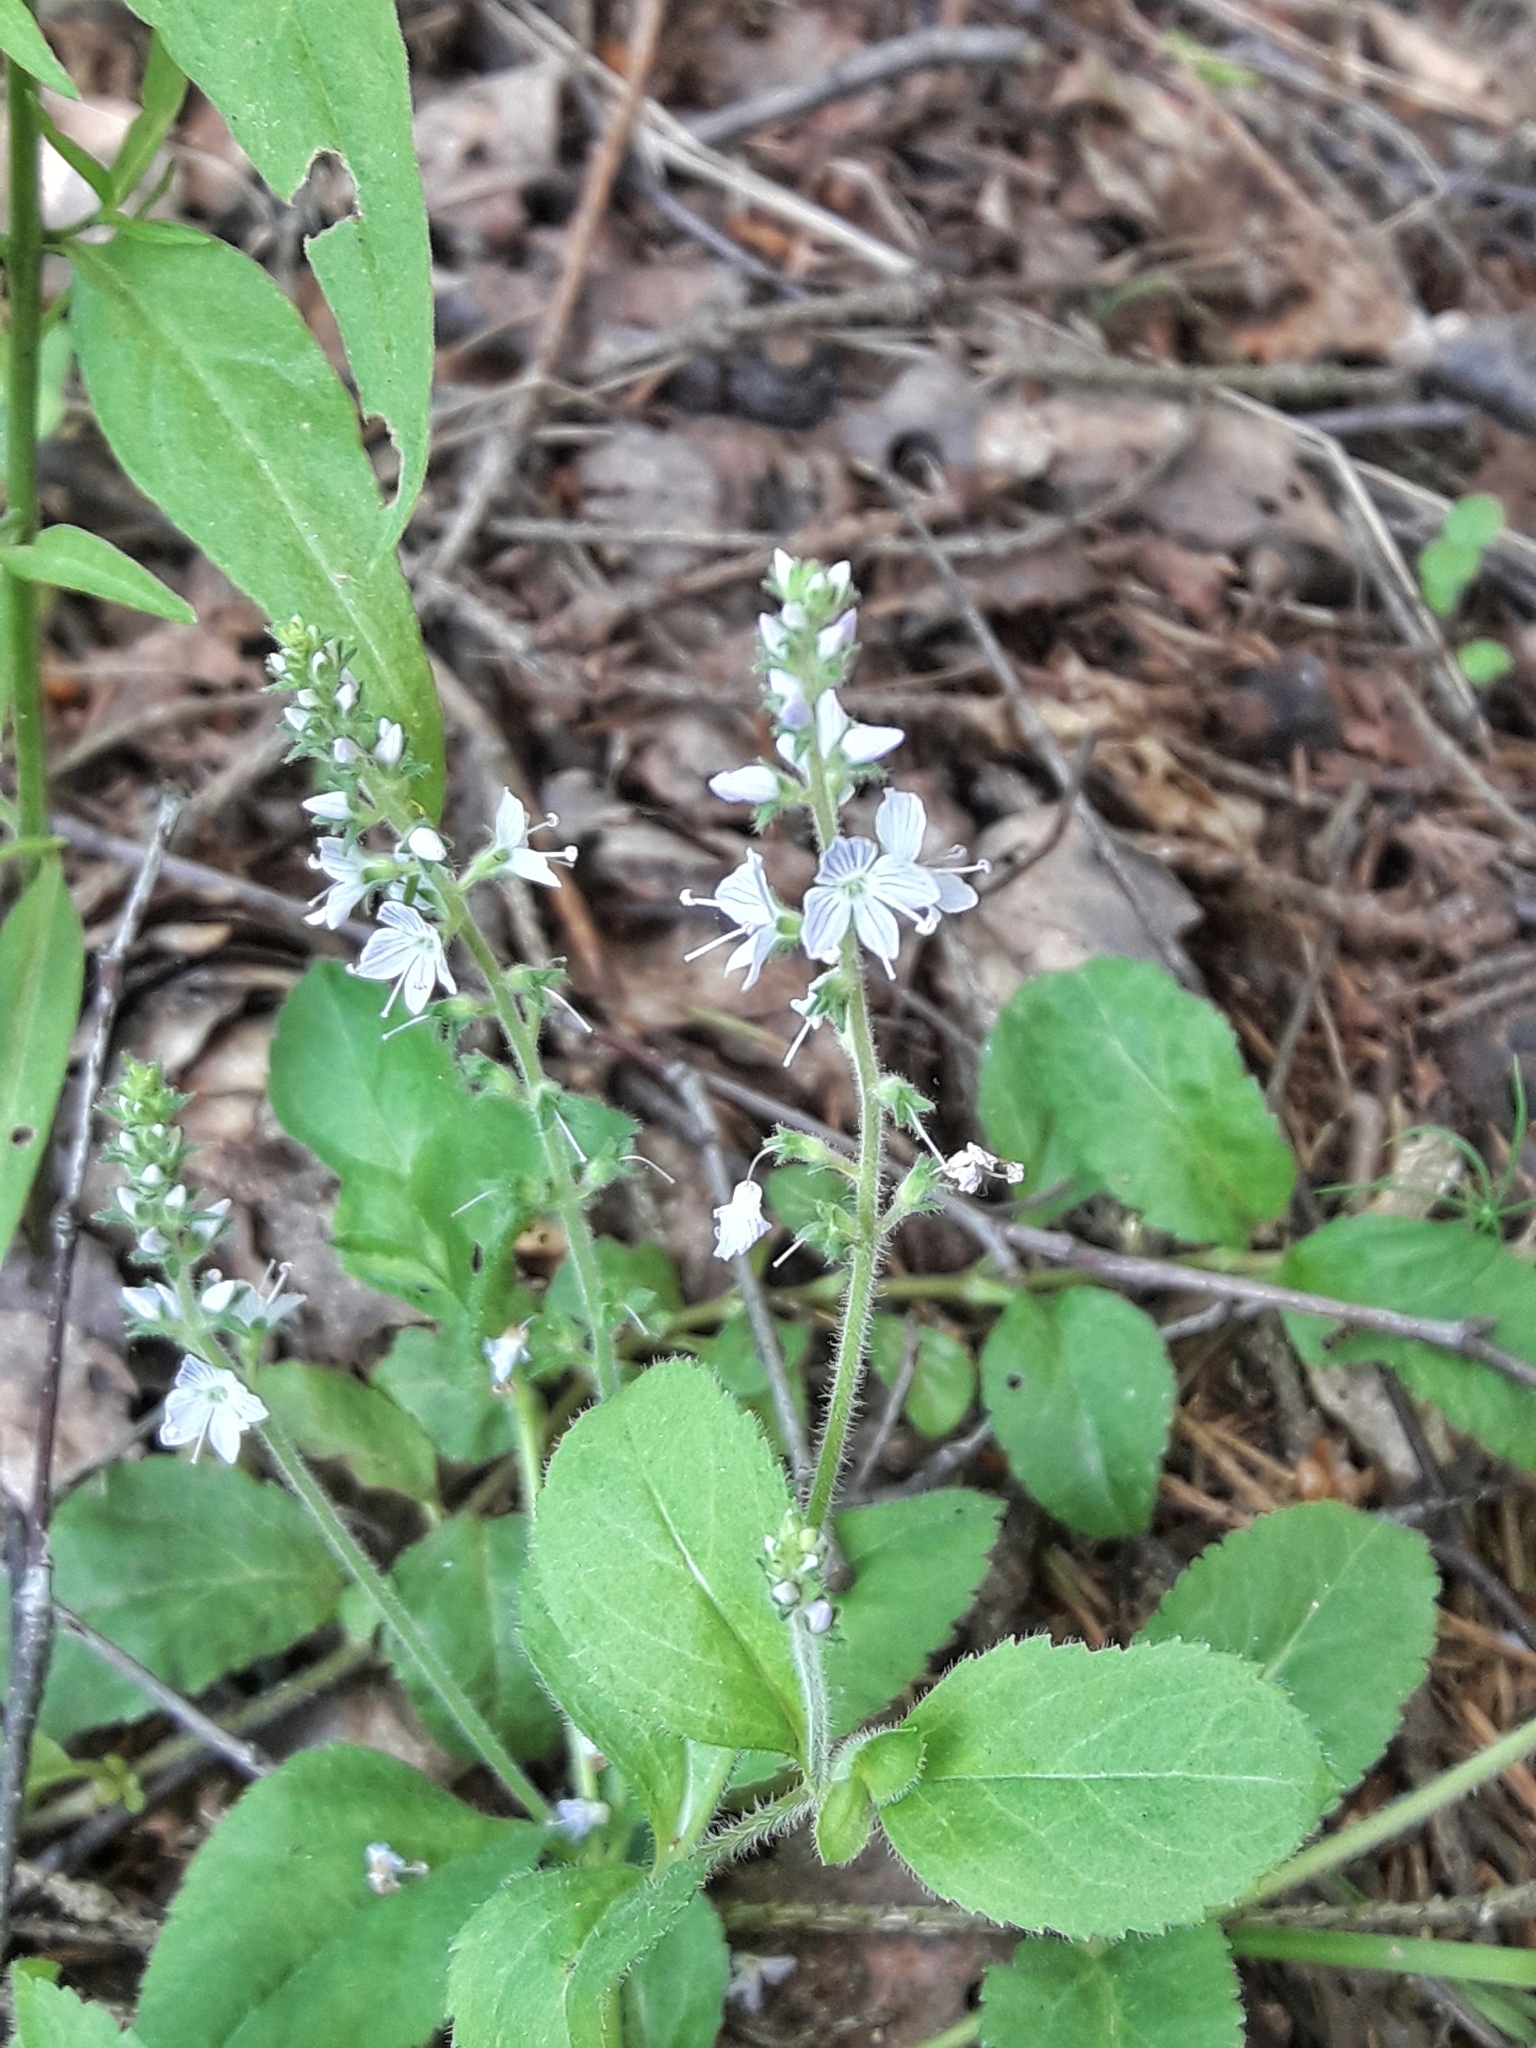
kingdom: Plantae
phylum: Tracheophyta
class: Magnoliopsida
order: Lamiales
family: Plantaginaceae
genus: Veronica
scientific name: Veronica officinalis
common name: Common speedwell
